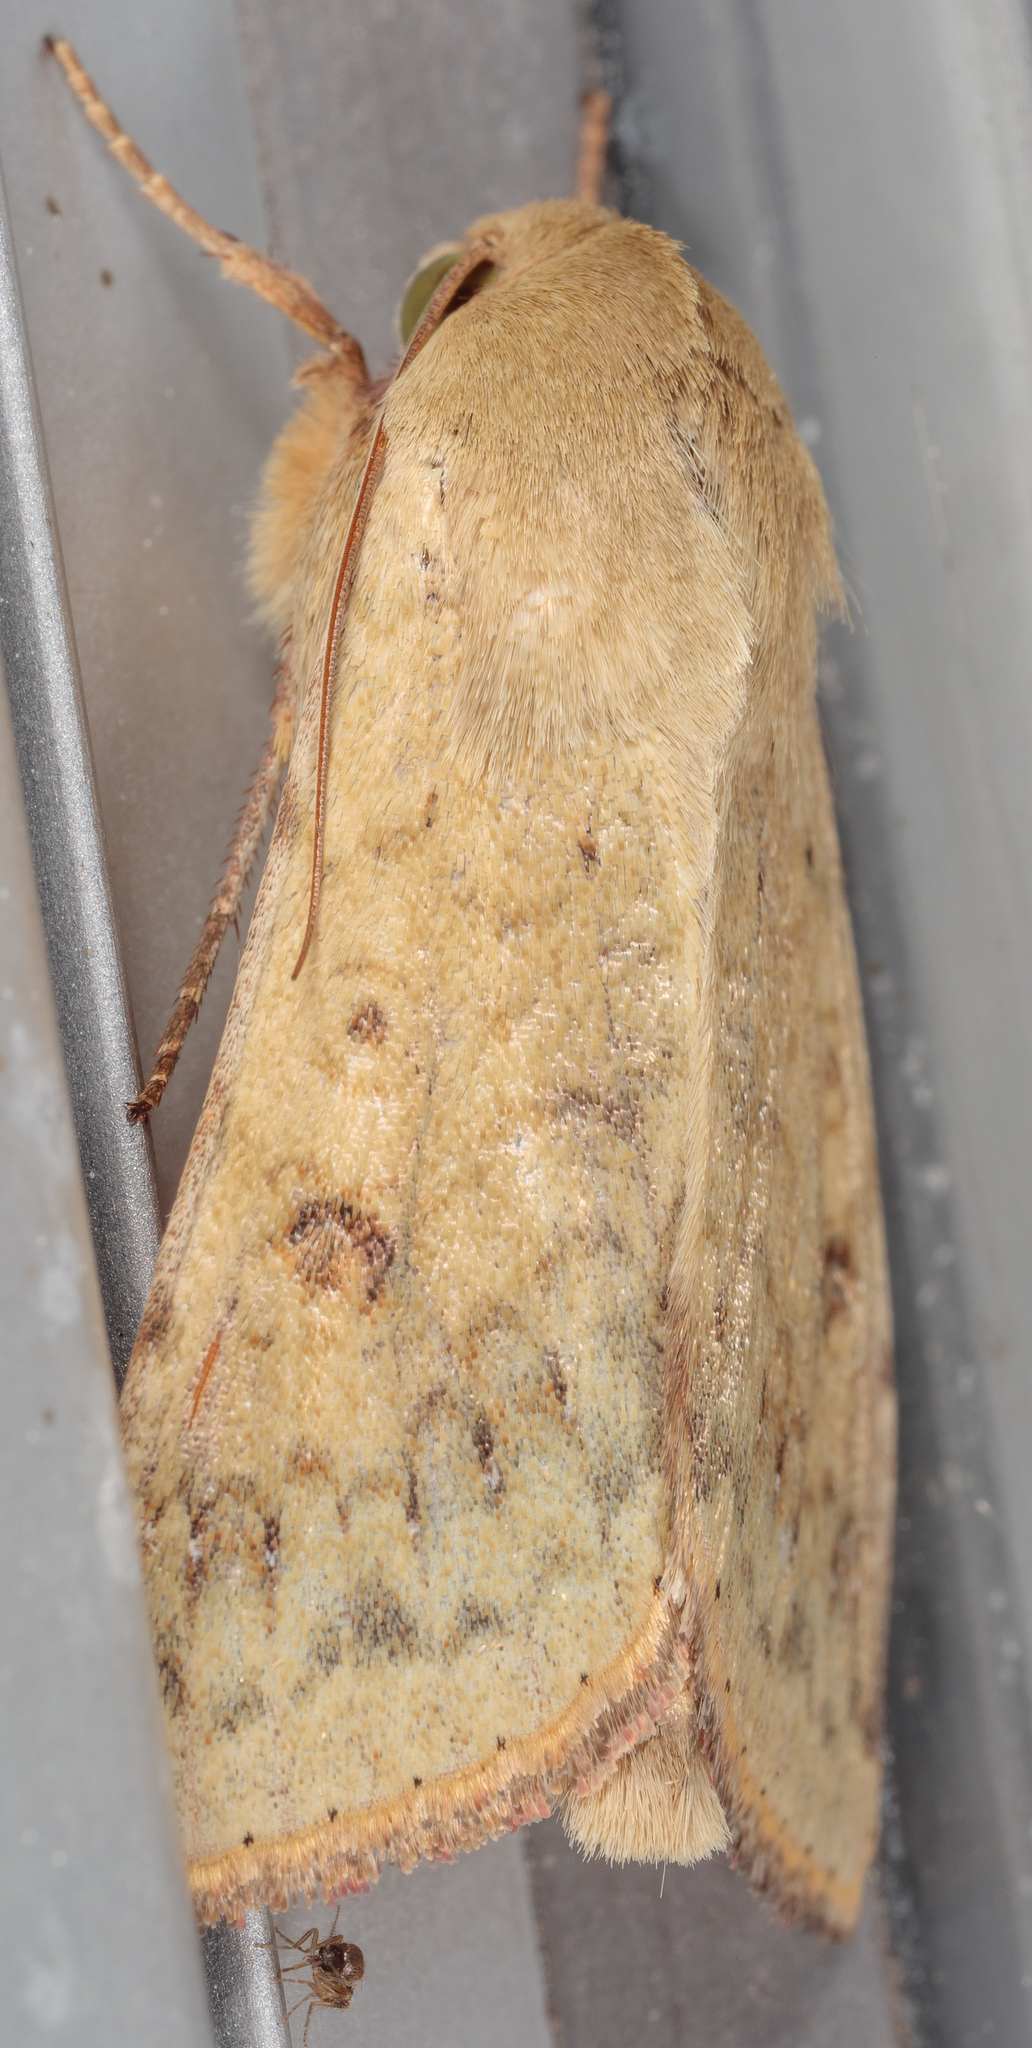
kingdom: Animalia
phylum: Arthropoda
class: Insecta
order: Lepidoptera
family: Noctuidae
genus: Helicoverpa
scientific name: Helicoverpa zea
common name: Bollworm
